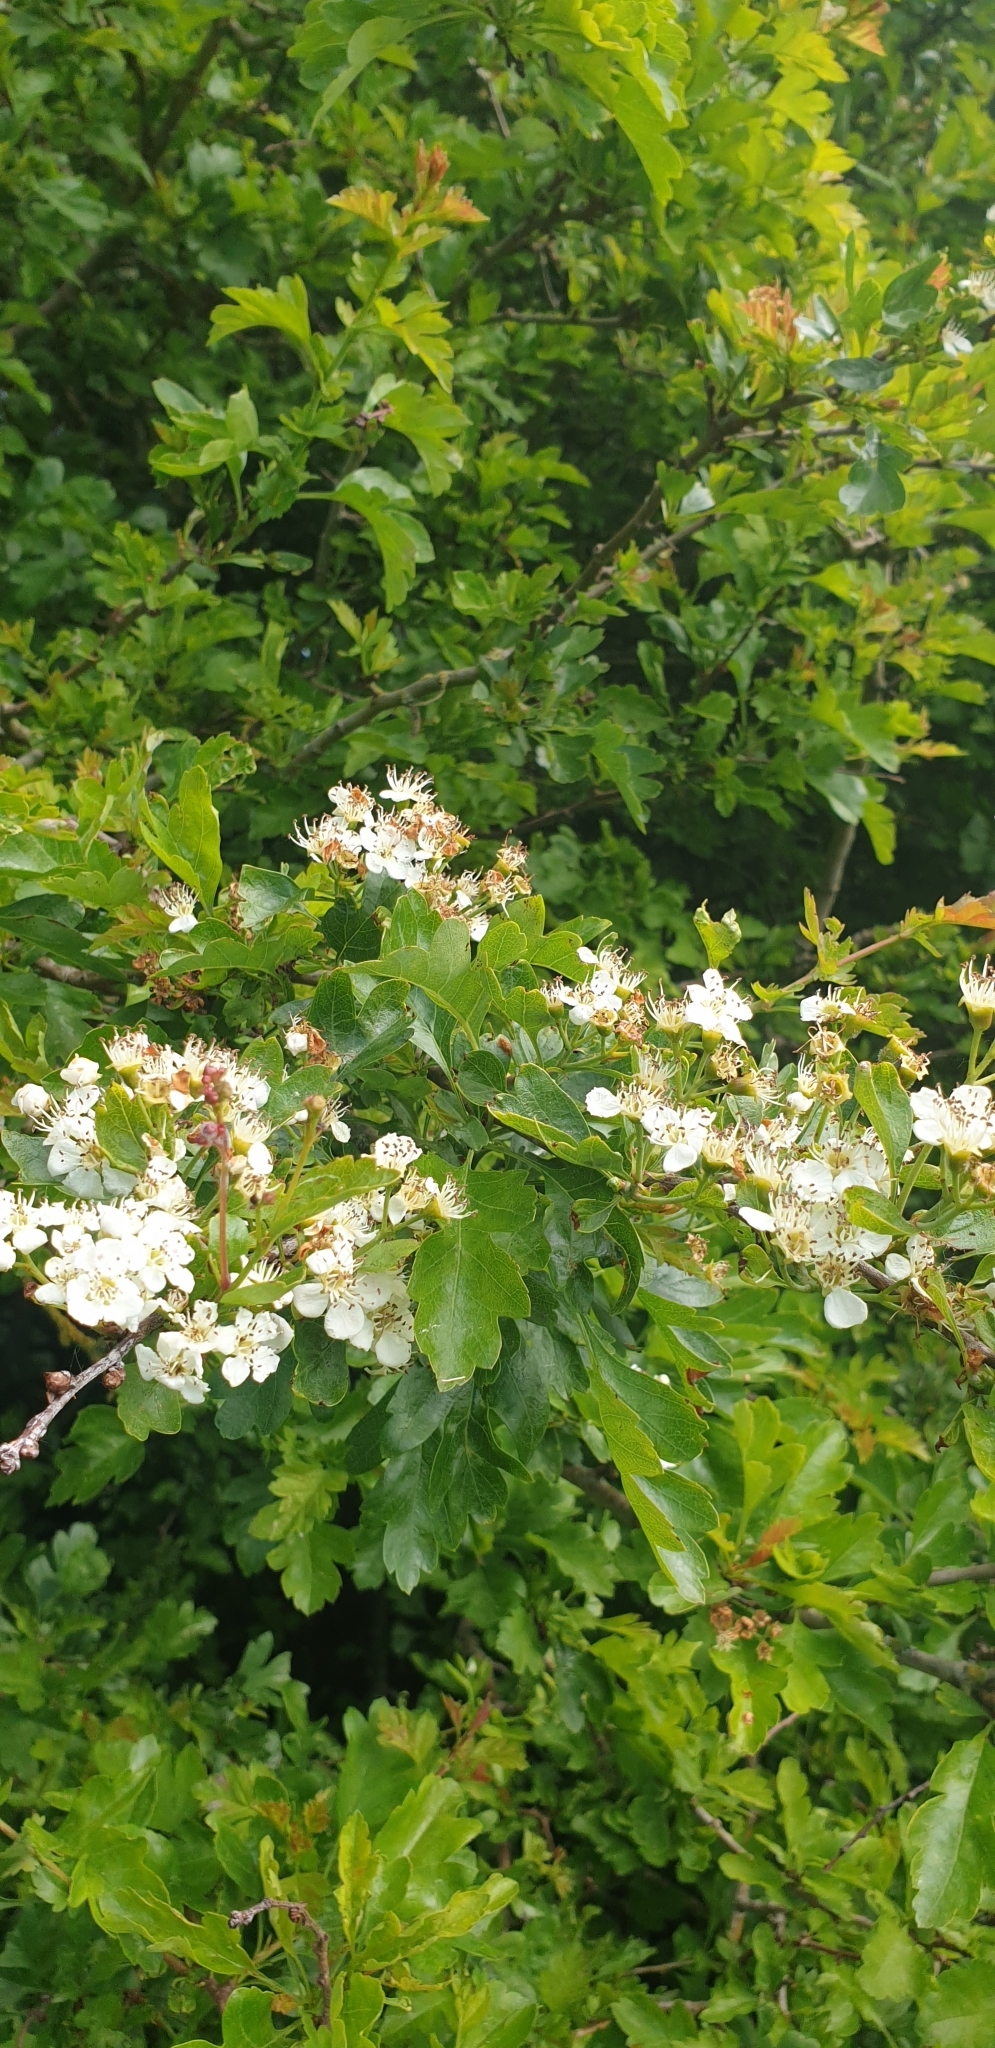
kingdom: Plantae
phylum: Tracheophyta
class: Magnoliopsida
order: Rosales
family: Rosaceae
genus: Crataegus
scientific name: Crataegus monogyna
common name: Hawthorn
